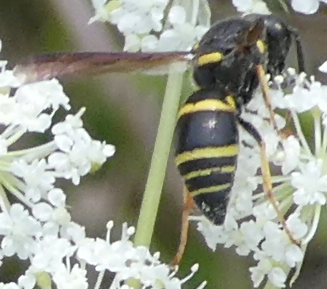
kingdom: Animalia
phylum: Arthropoda
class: Insecta
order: Hymenoptera
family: Eumenidae
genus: Euodynerus
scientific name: Euodynerus foraminatus
